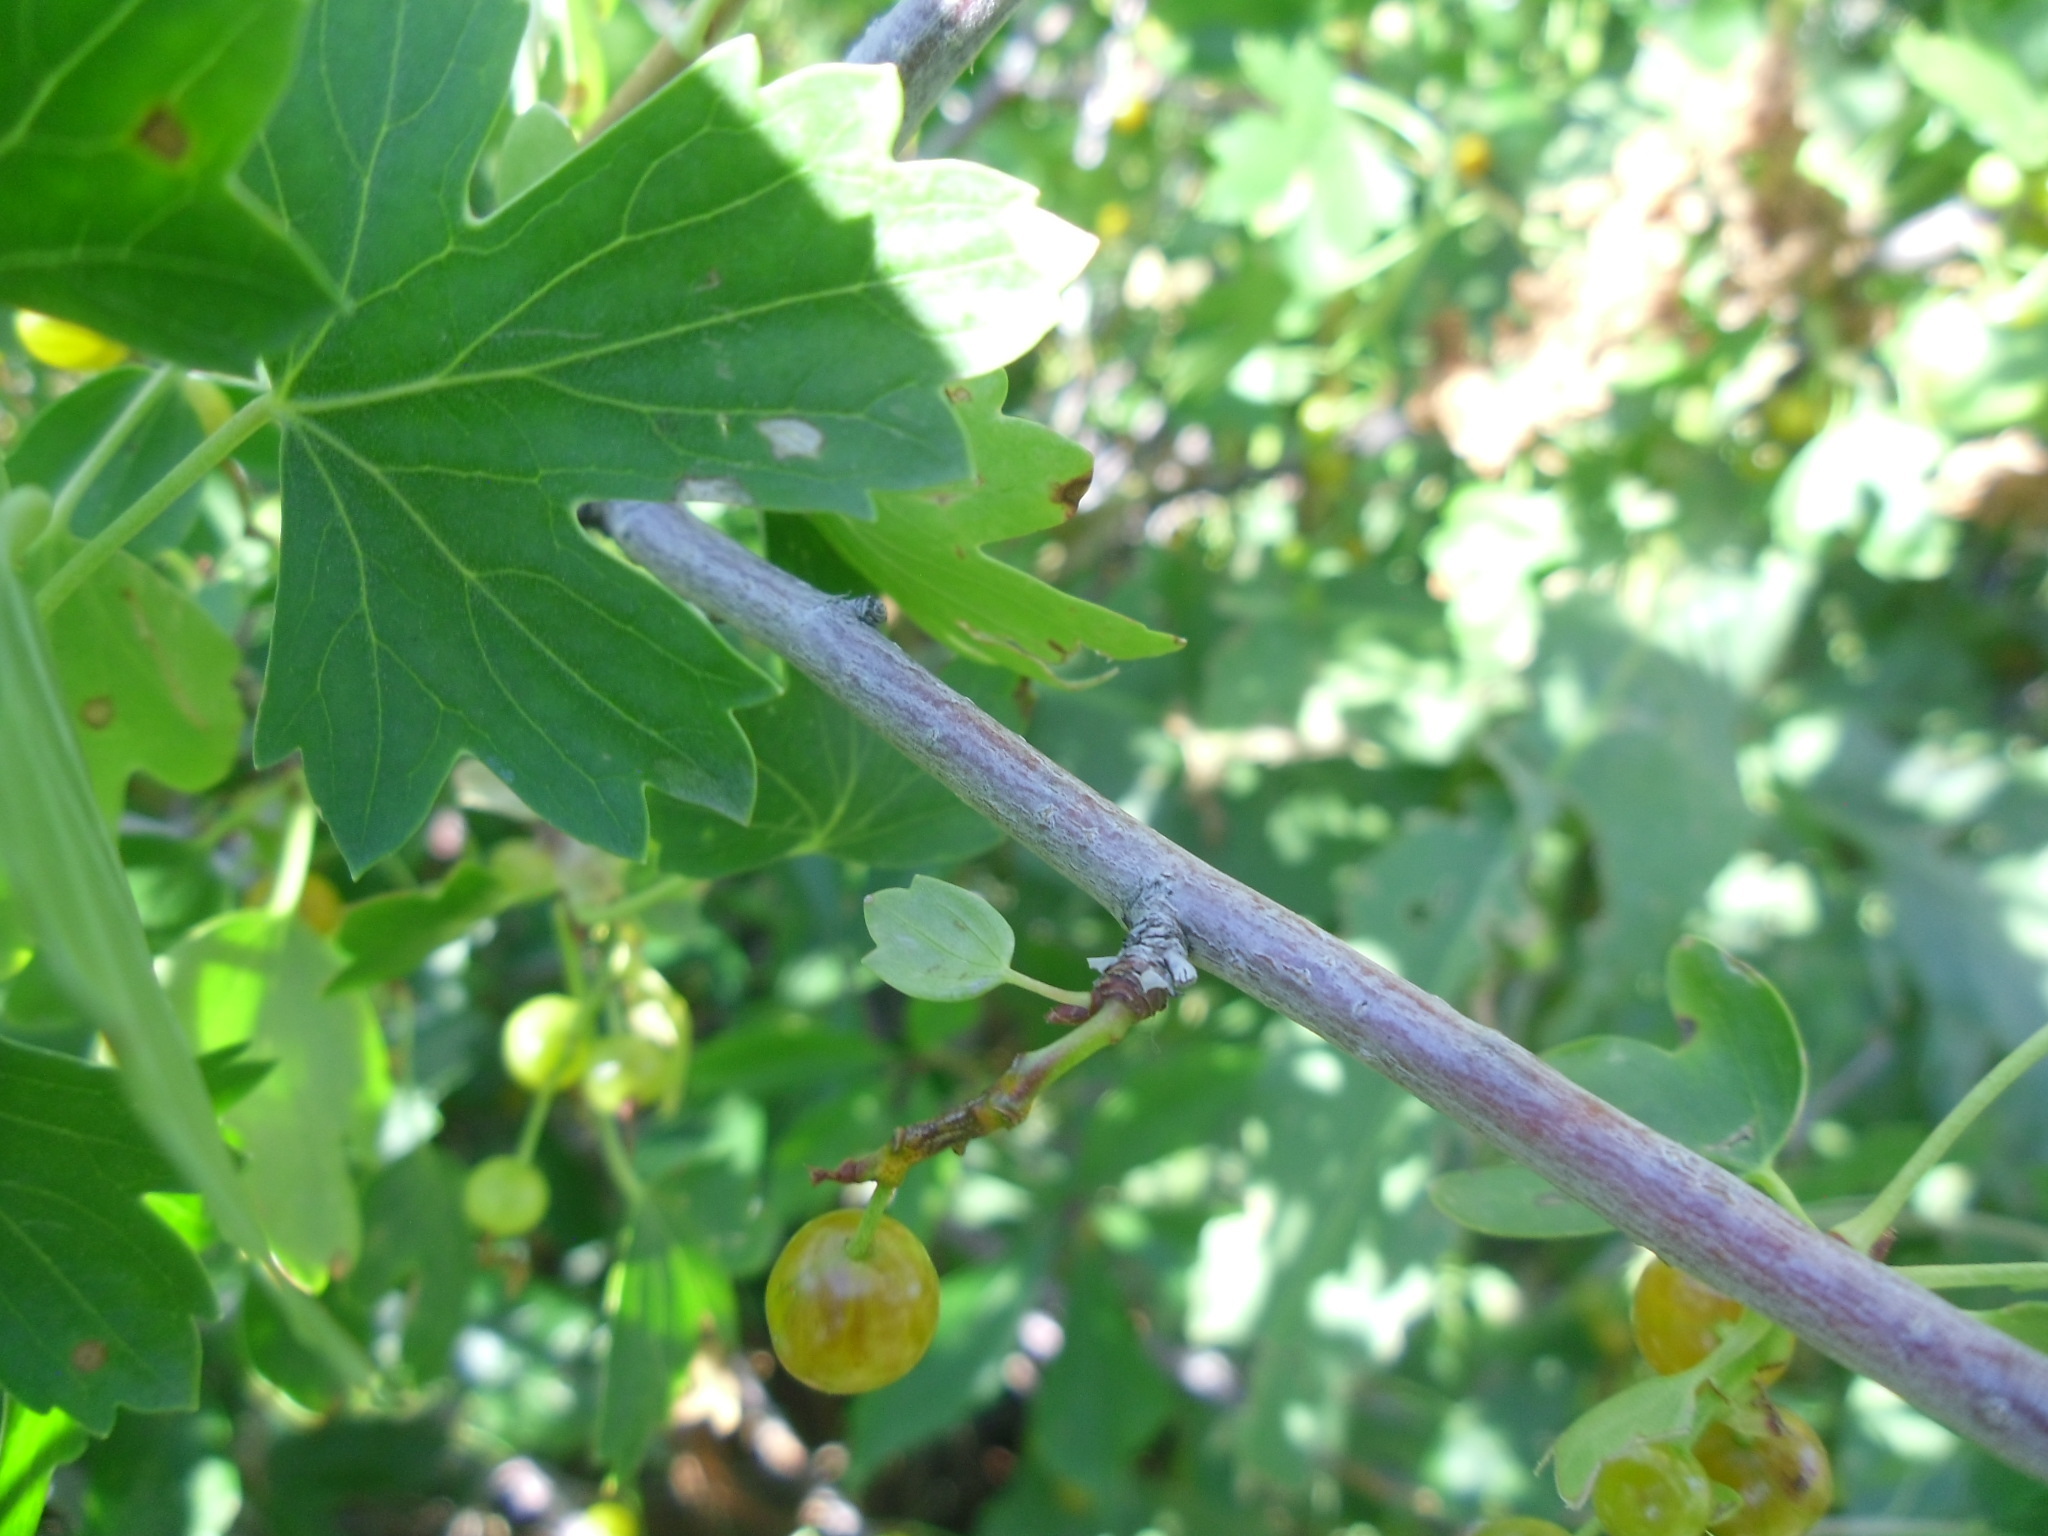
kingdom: Plantae
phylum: Tracheophyta
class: Magnoliopsida
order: Saxifragales
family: Grossulariaceae
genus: Ribes
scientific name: Ribes aureum
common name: Golden currant
